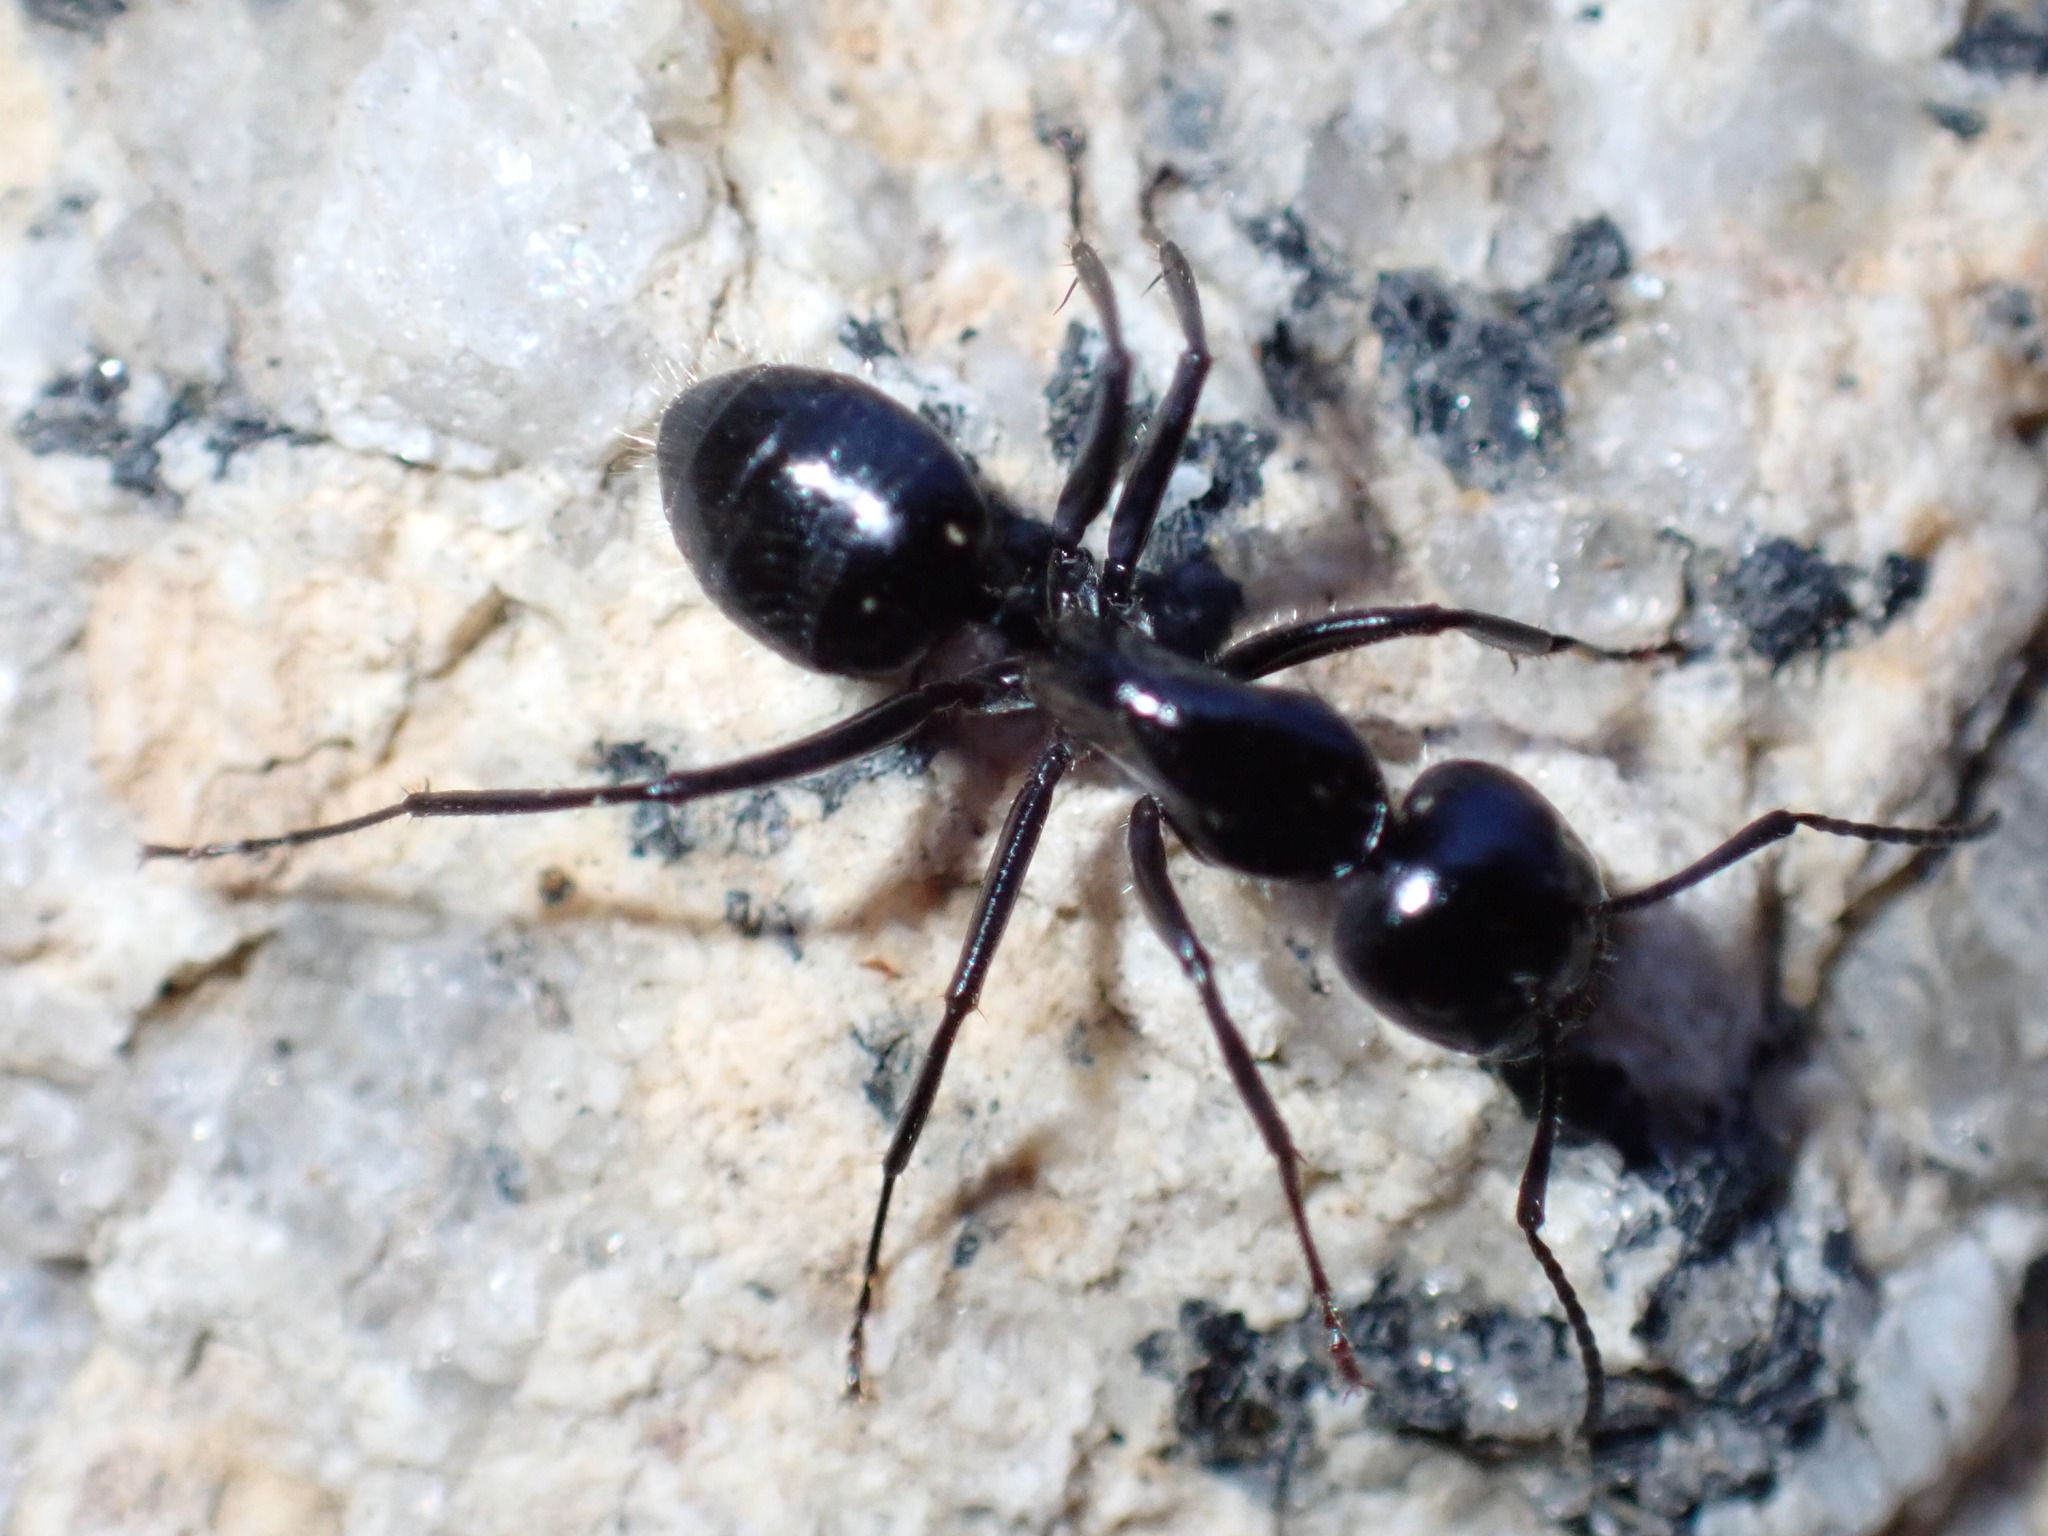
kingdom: Animalia
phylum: Arthropoda
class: Insecta
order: Hymenoptera
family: Formicidae
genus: Camponotus
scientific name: Camponotus
